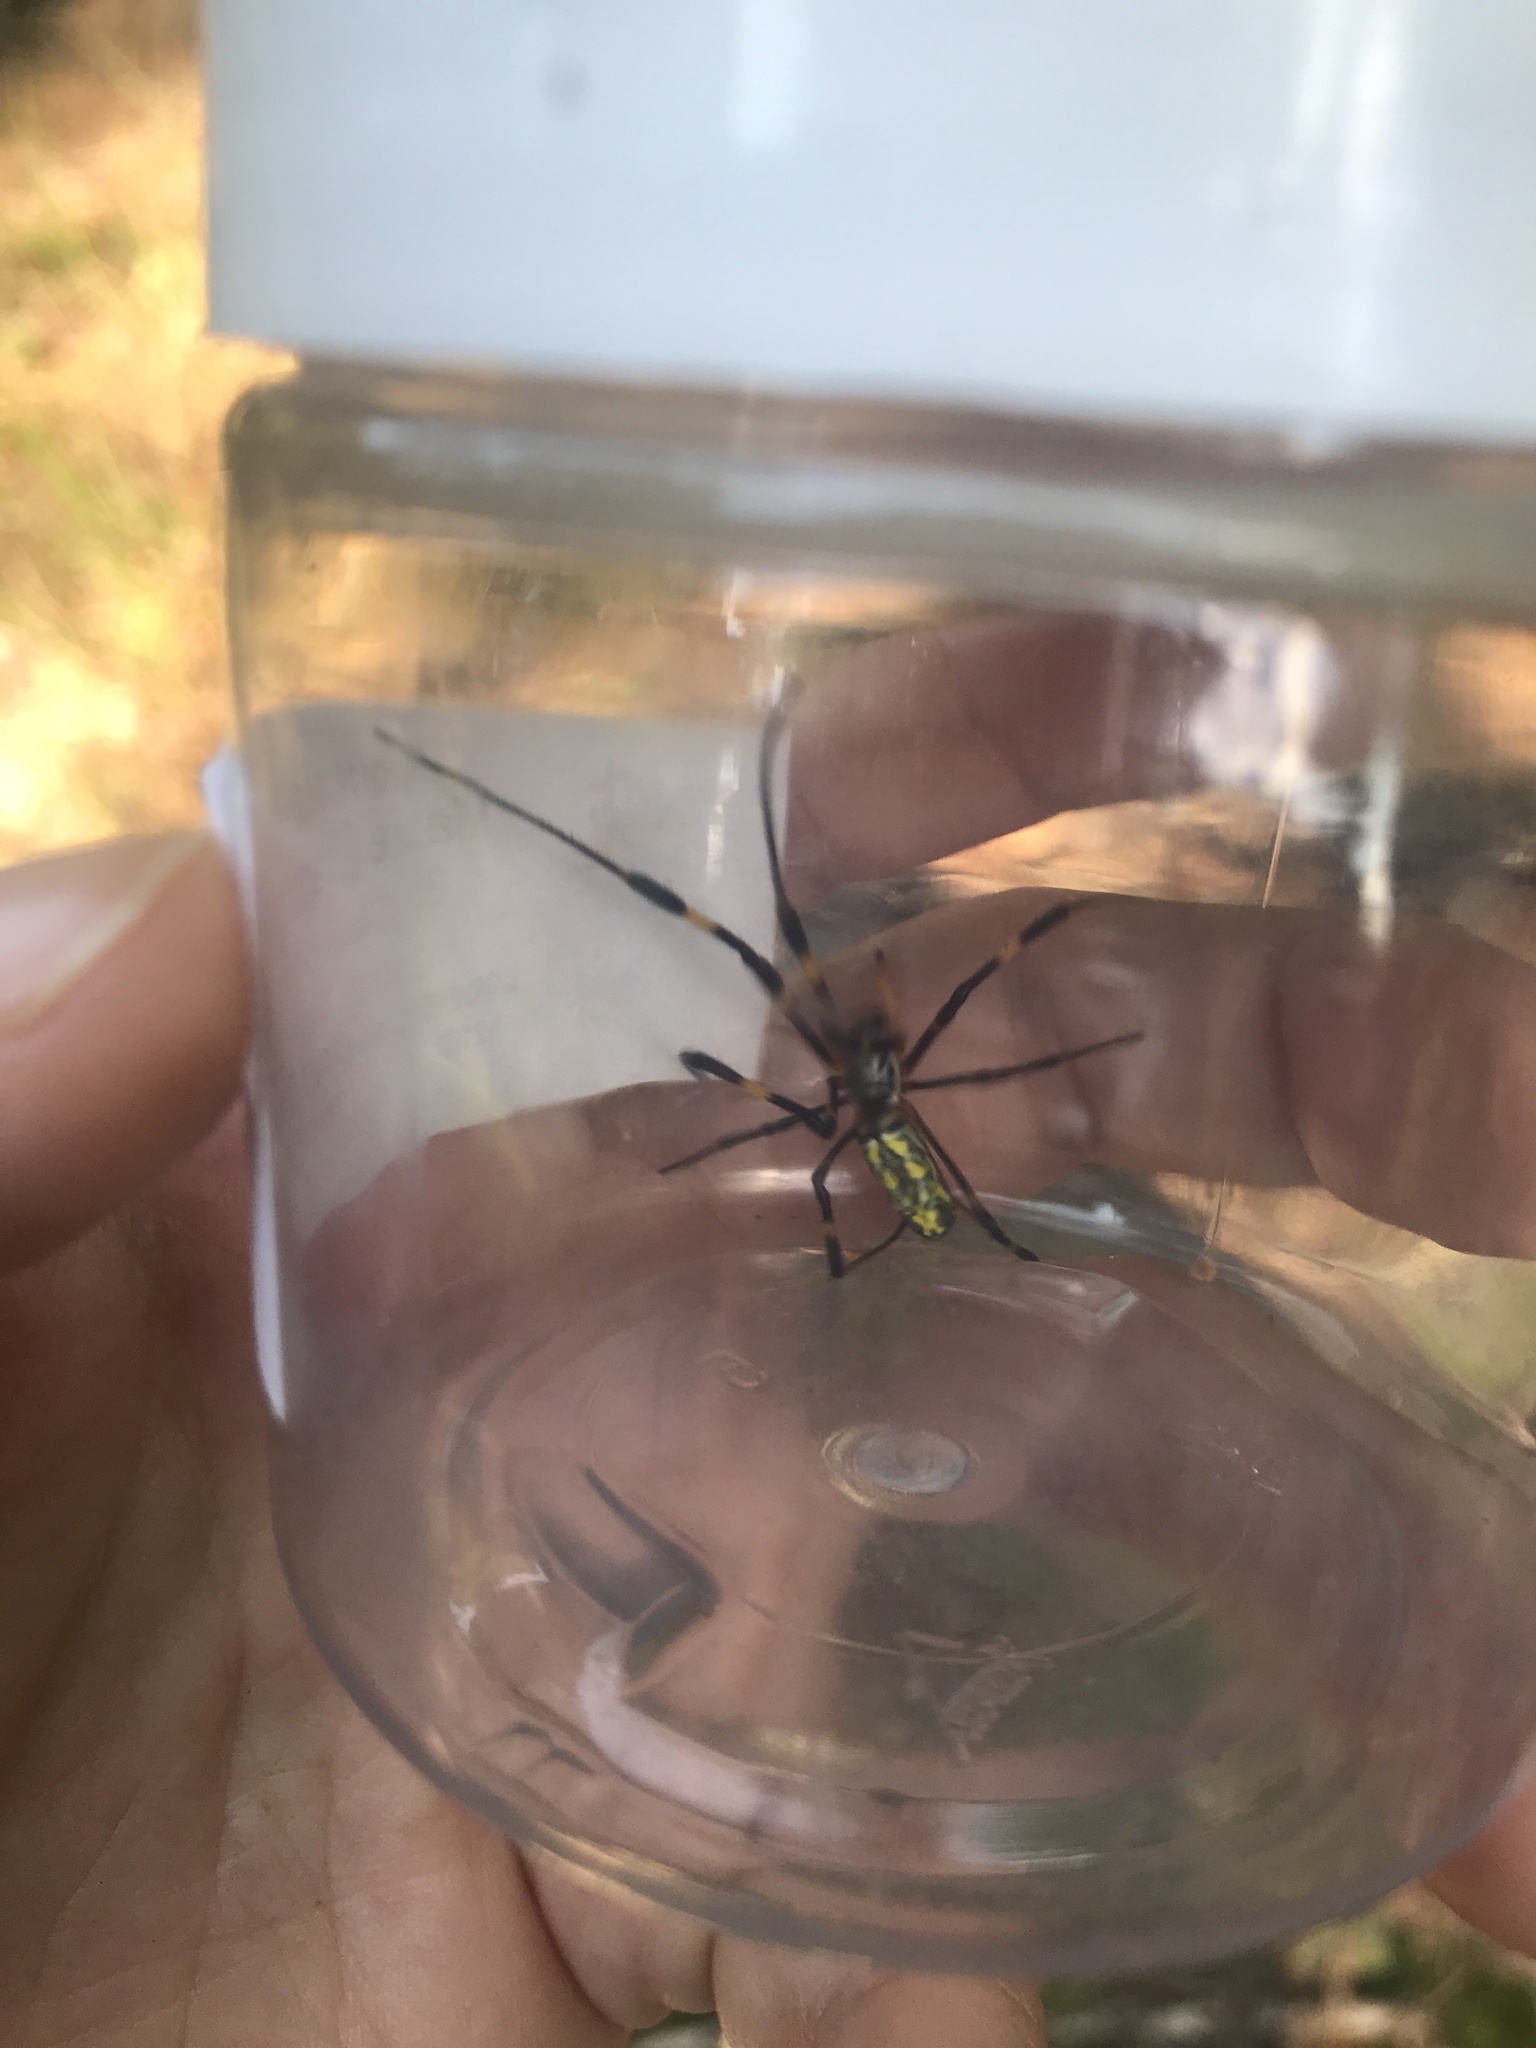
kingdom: Animalia
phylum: Arthropoda
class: Arachnida
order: Araneae
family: Araneidae
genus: Trichonephila
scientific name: Trichonephila clavata
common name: Jorō spider
